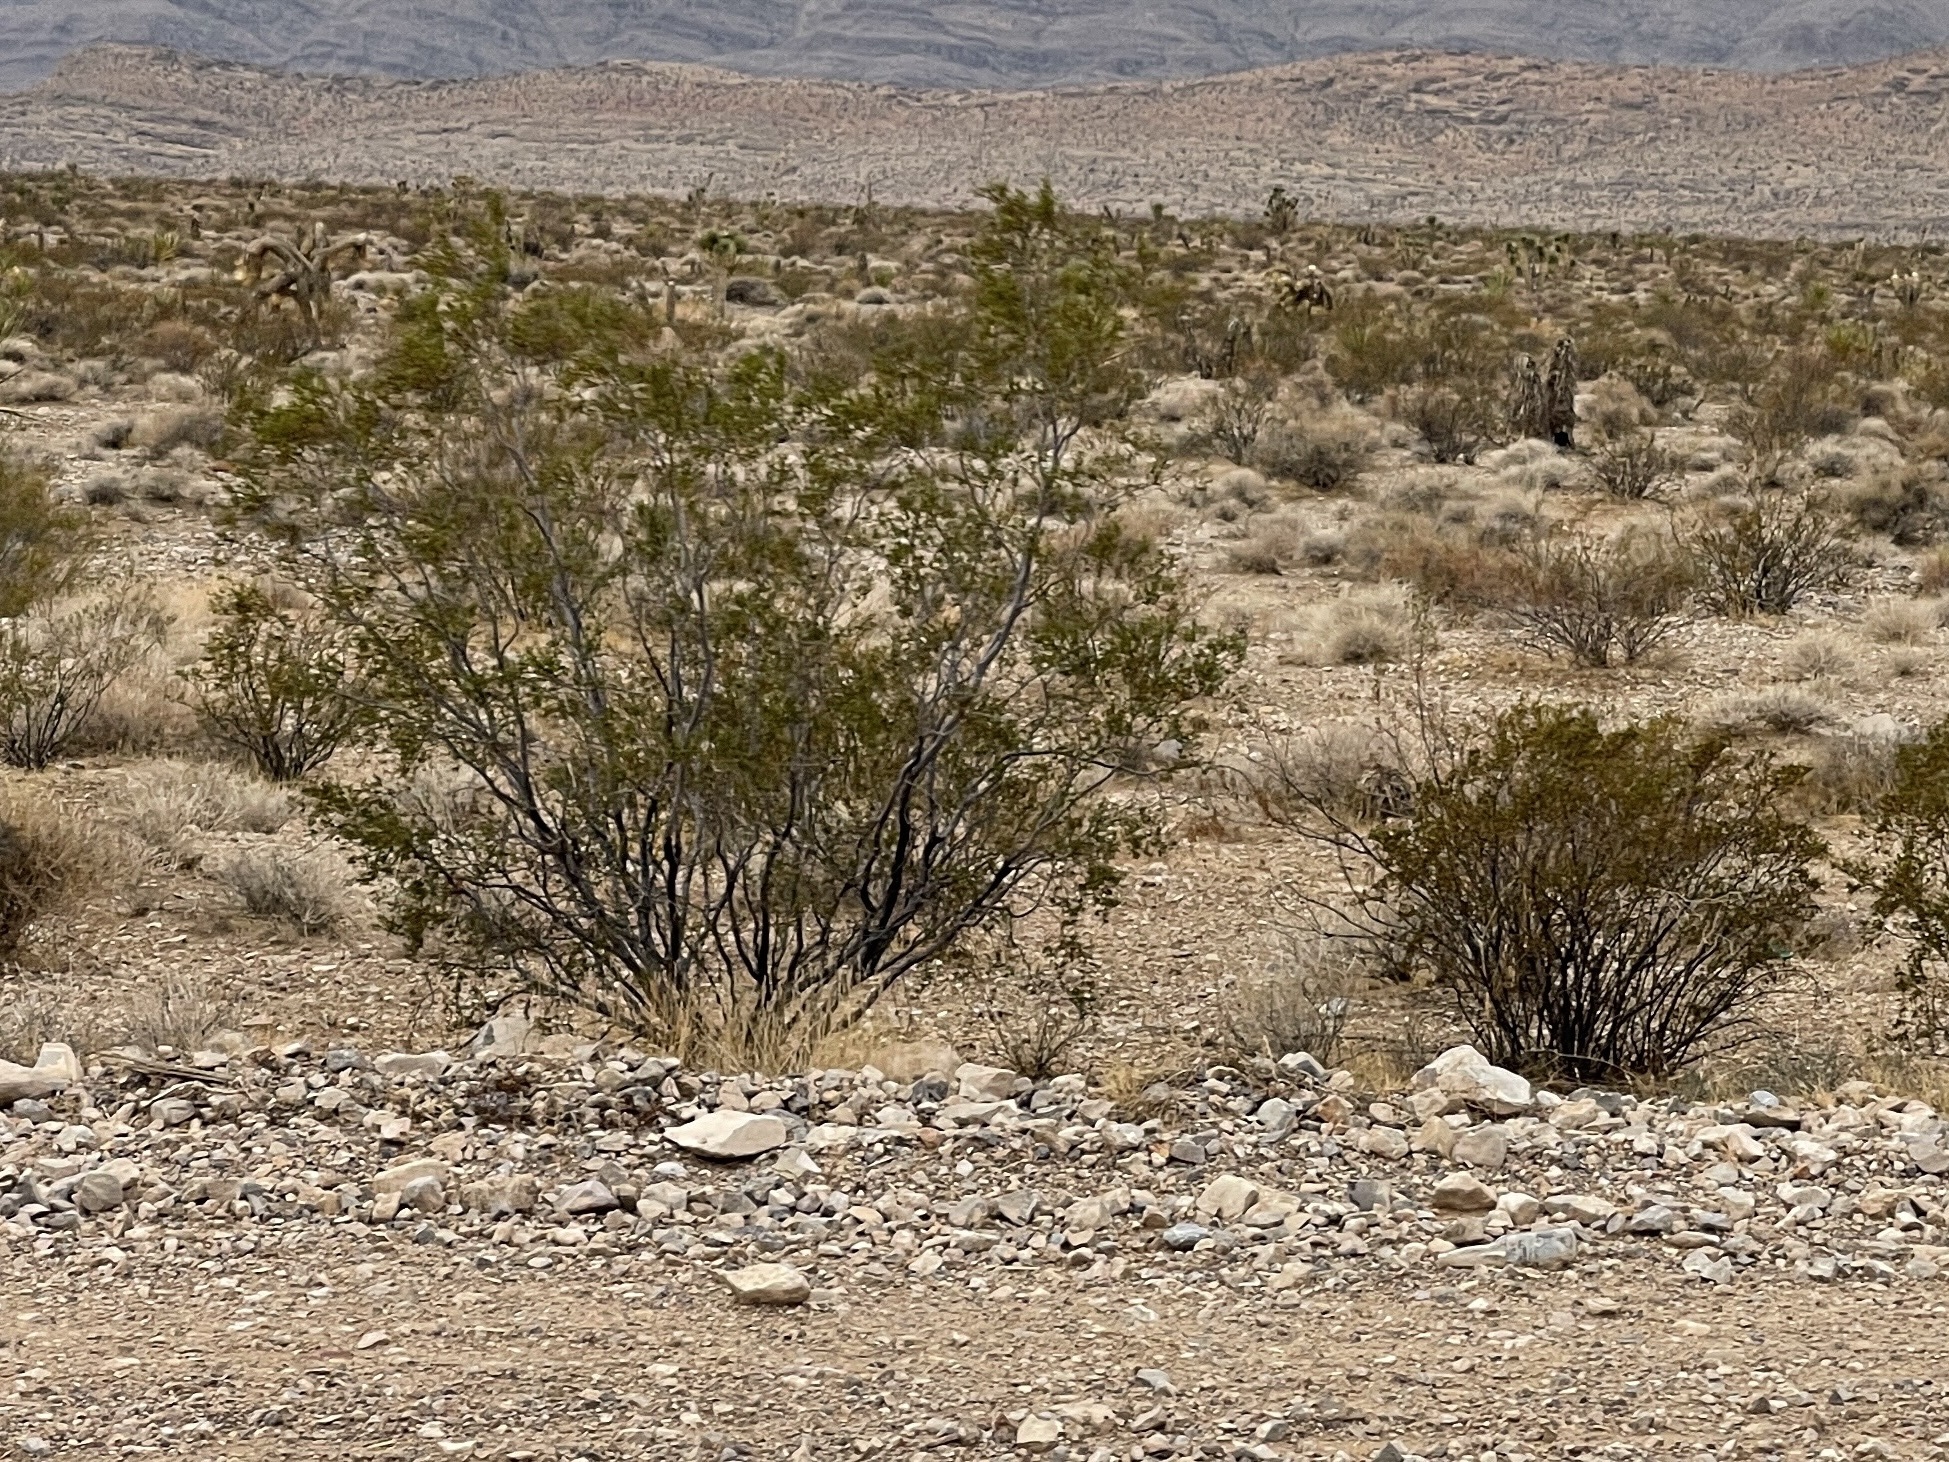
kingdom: Plantae
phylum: Tracheophyta
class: Magnoliopsida
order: Zygophyllales
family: Zygophyllaceae
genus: Larrea
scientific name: Larrea tridentata
